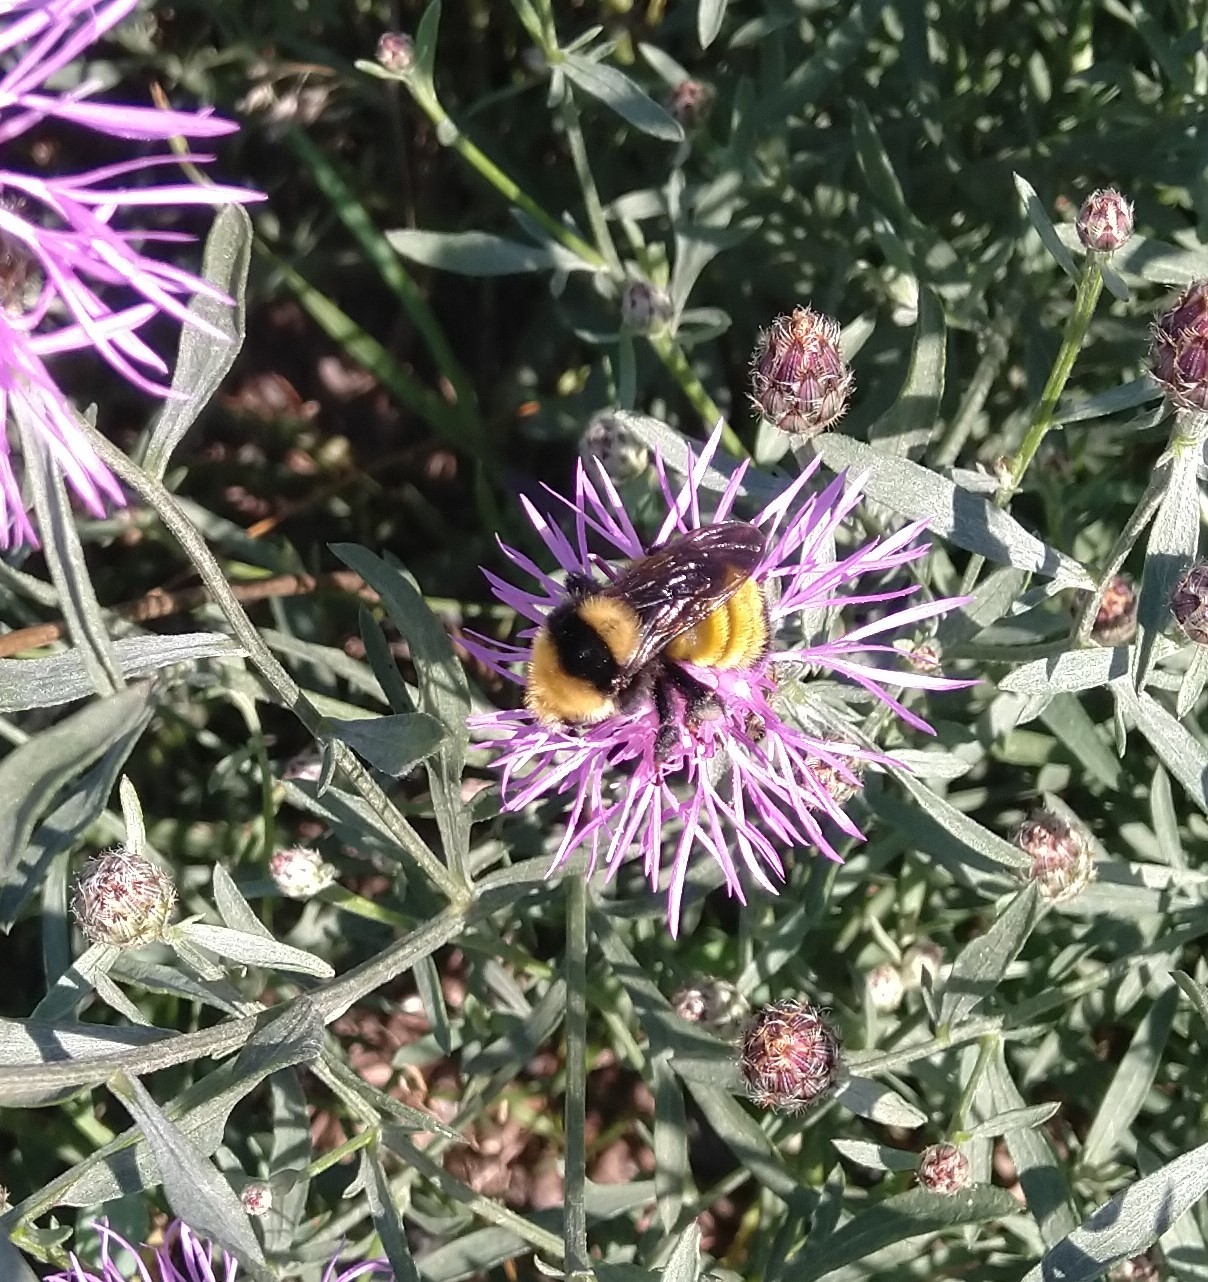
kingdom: Animalia
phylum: Arthropoda
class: Insecta
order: Hymenoptera
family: Apidae
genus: Bombus
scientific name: Bombus borealis
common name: Northern amber bumble bee
